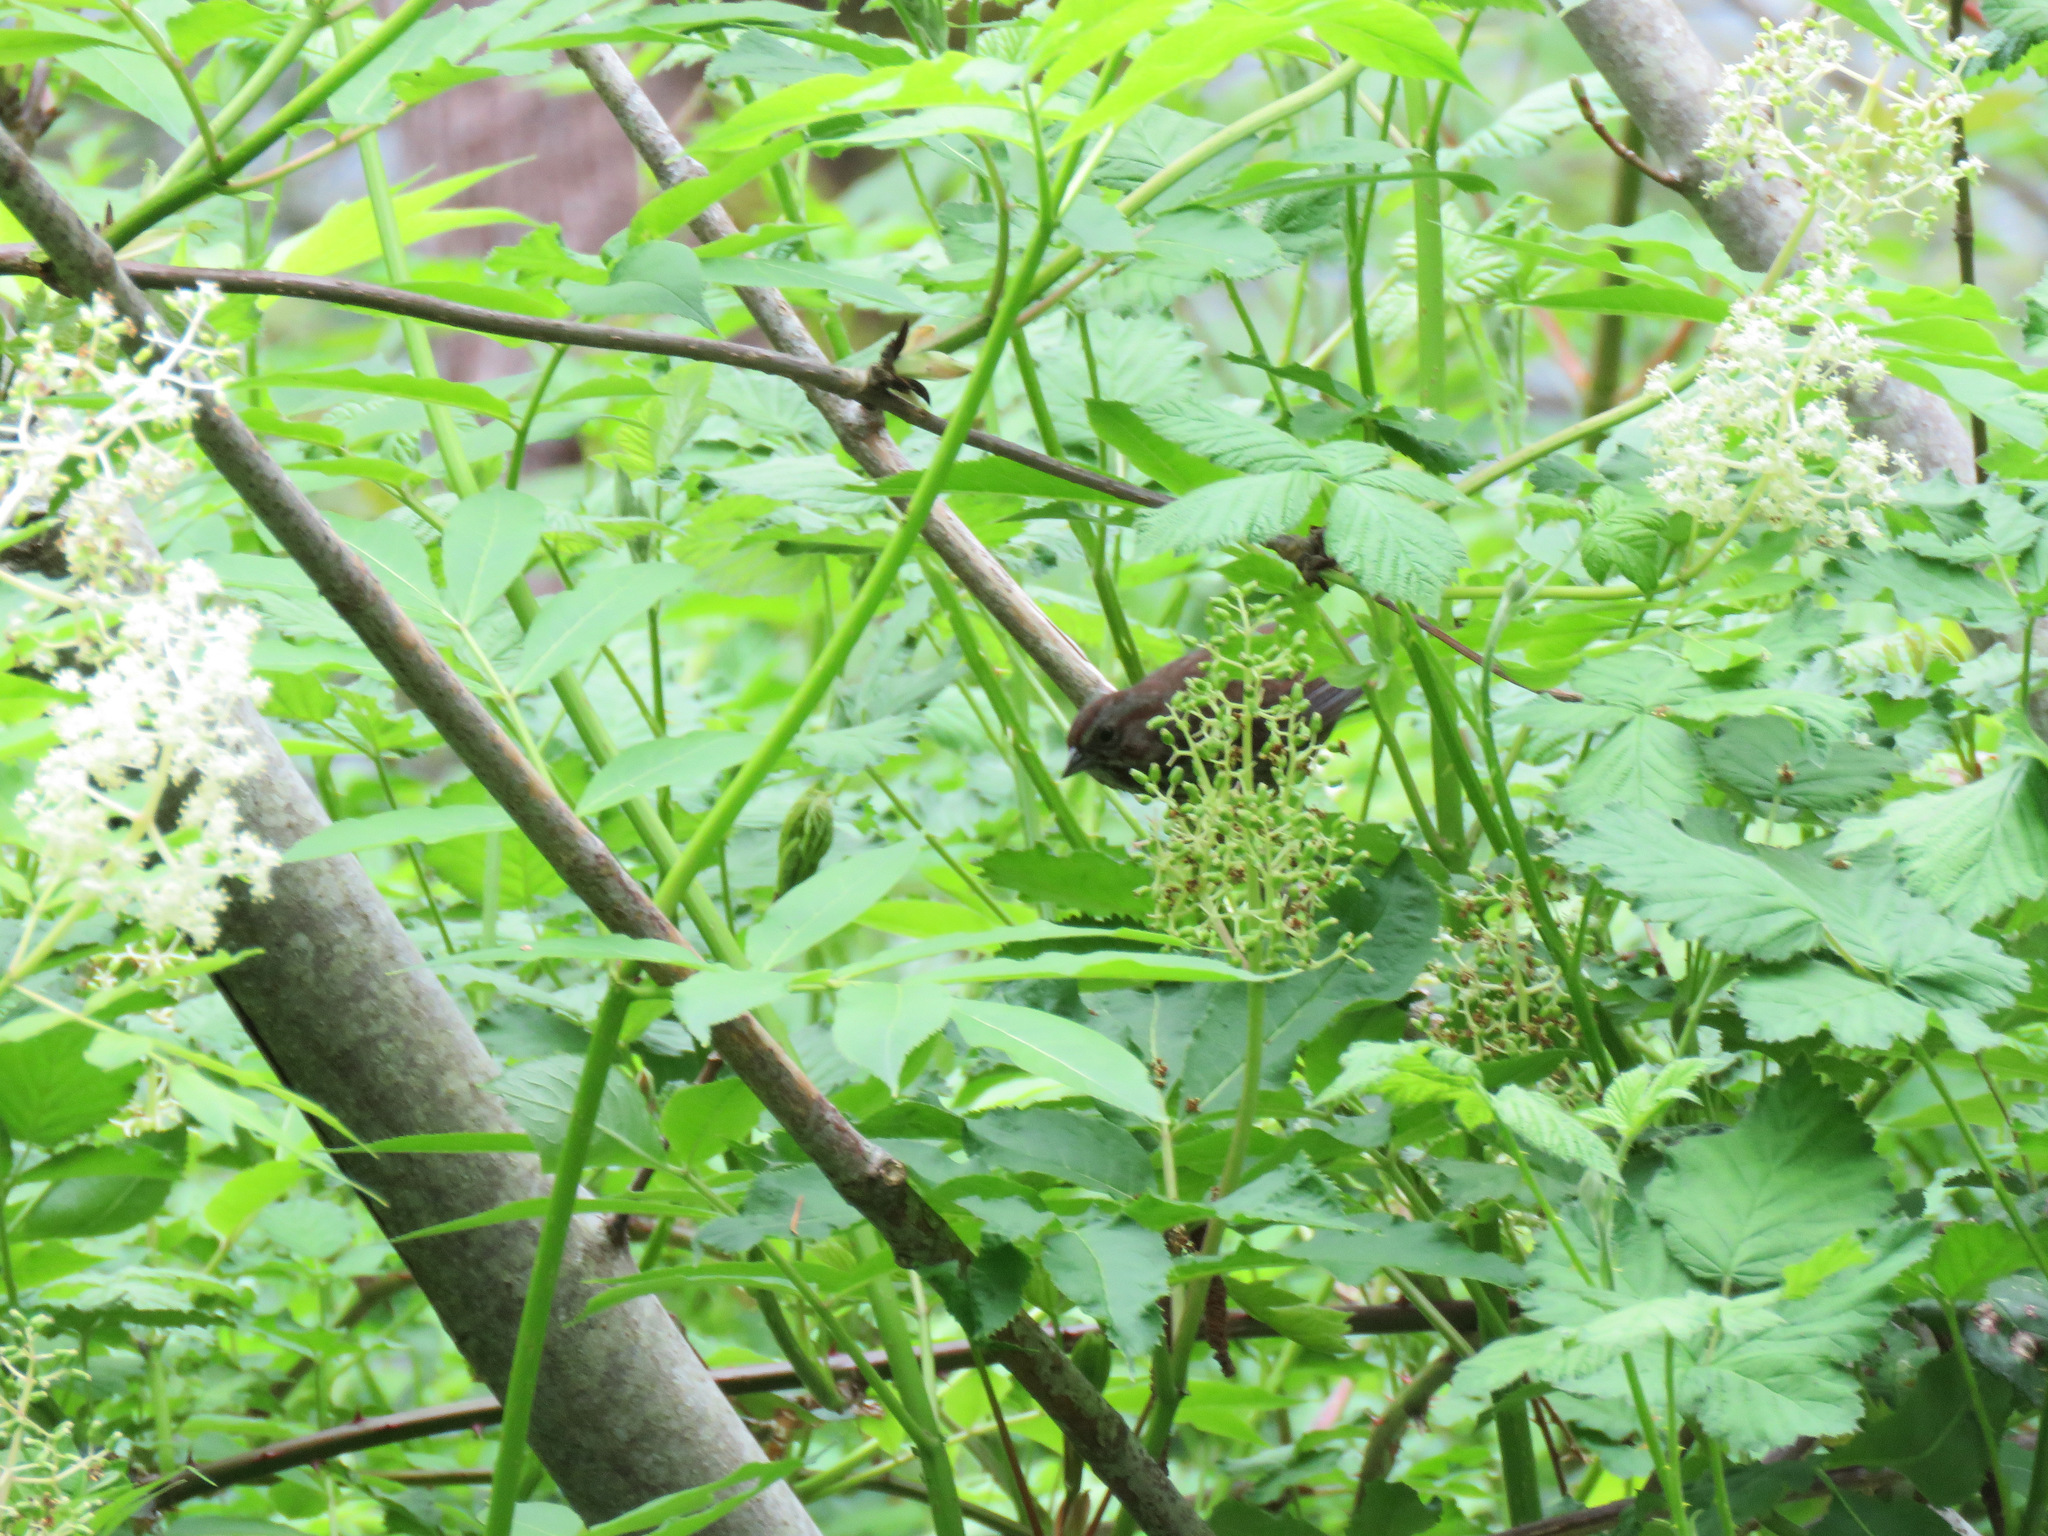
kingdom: Animalia
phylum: Chordata
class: Aves
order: Passeriformes
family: Passerellidae
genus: Melospiza
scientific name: Melospiza melodia
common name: Song sparrow
